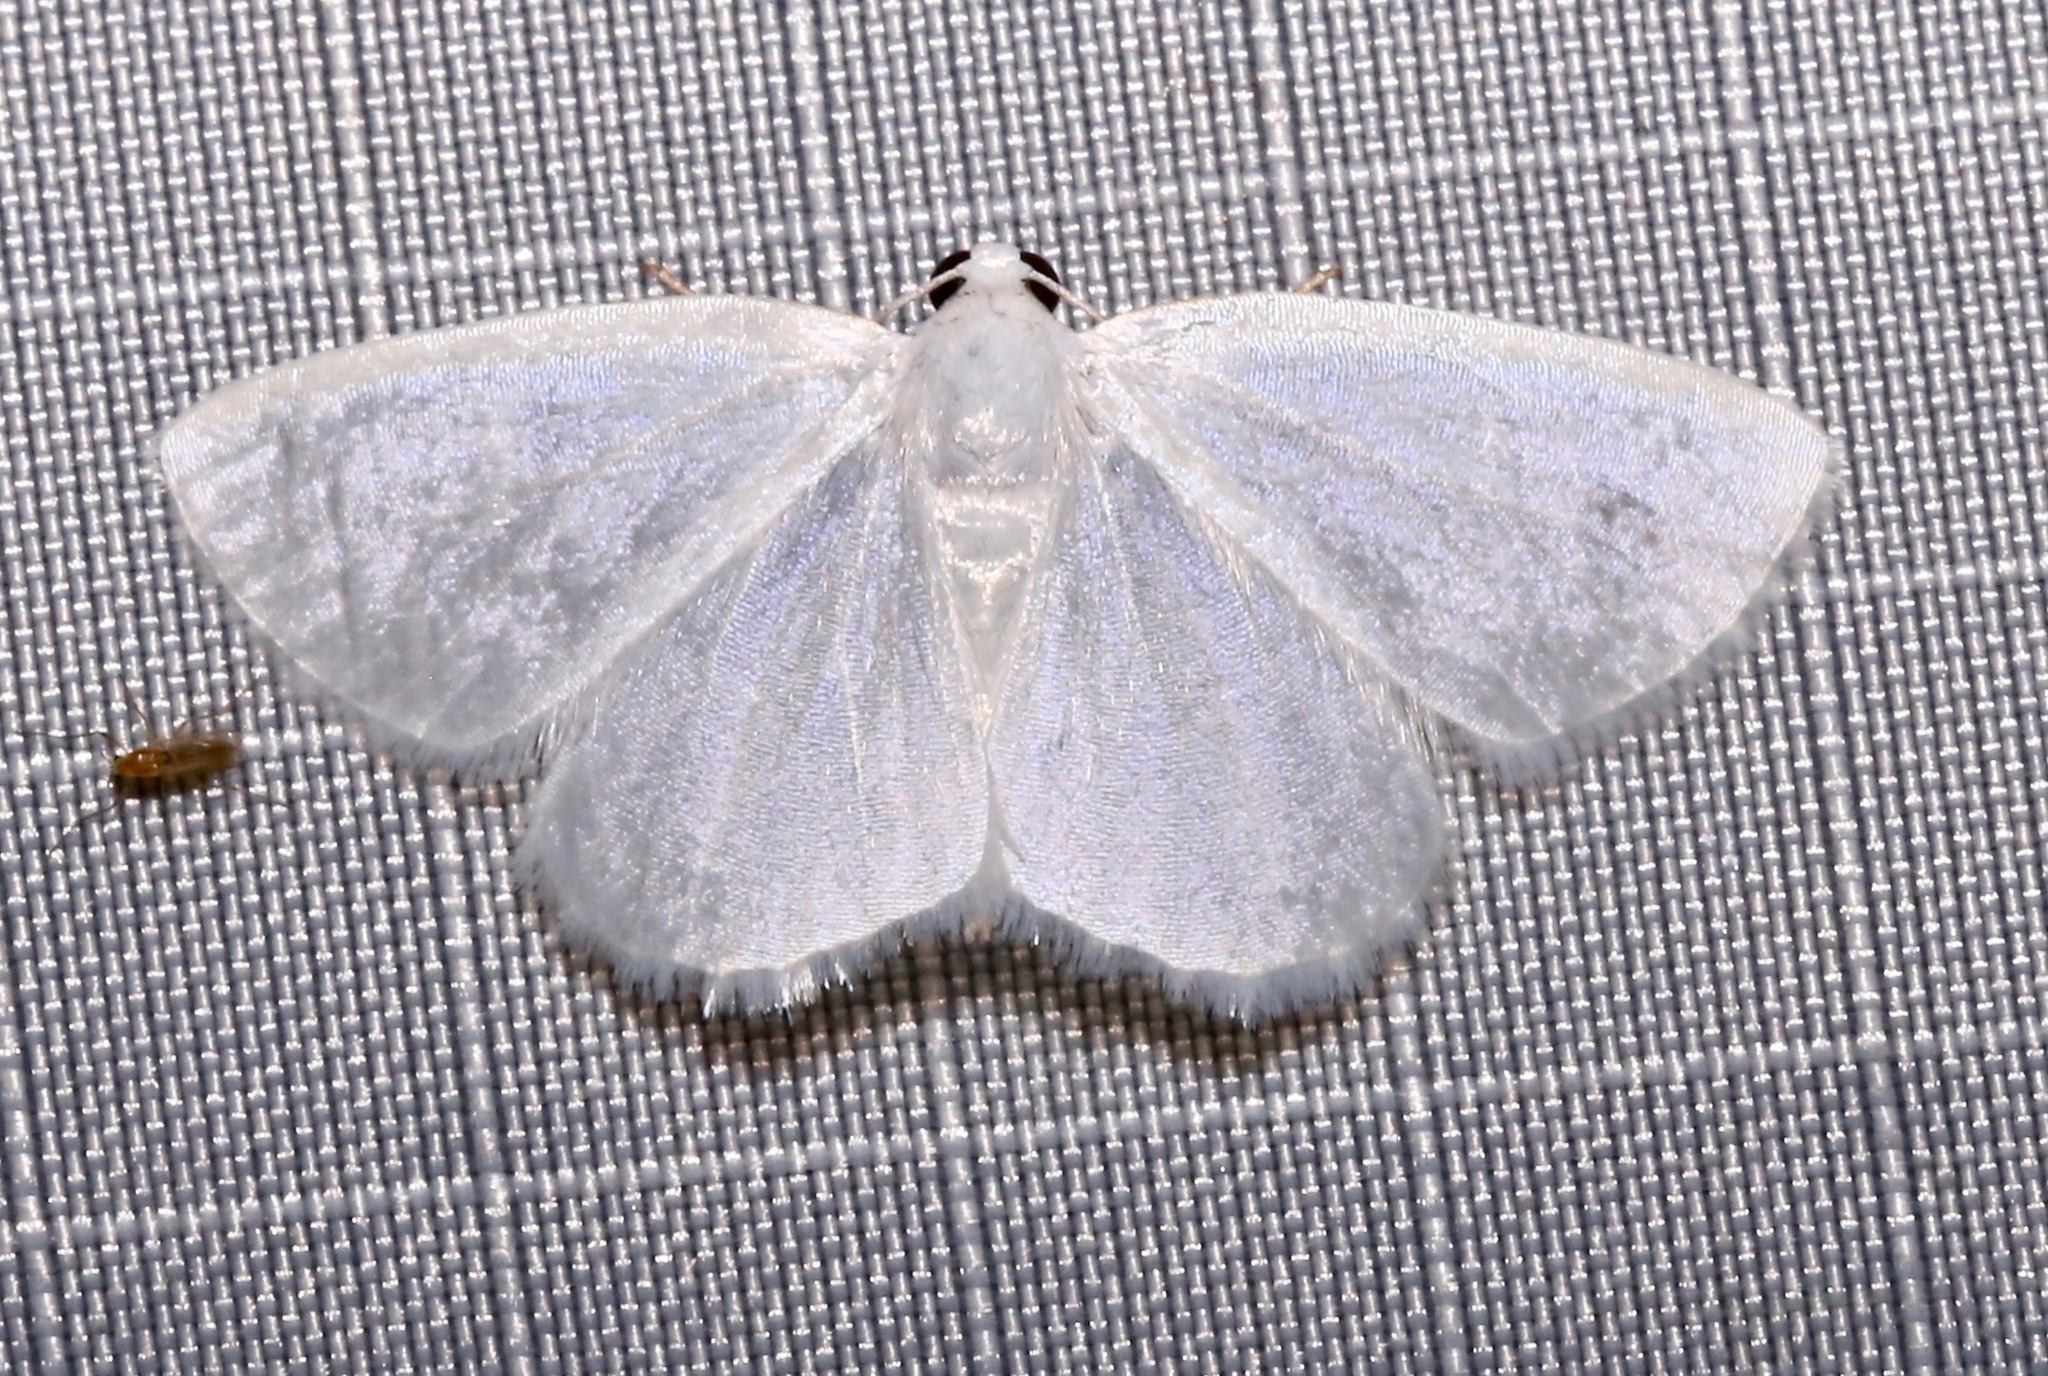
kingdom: Animalia
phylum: Arthropoda
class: Insecta
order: Lepidoptera
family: Geometridae
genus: Lomographa
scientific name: Lomographa vestaliata
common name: White spring moth
